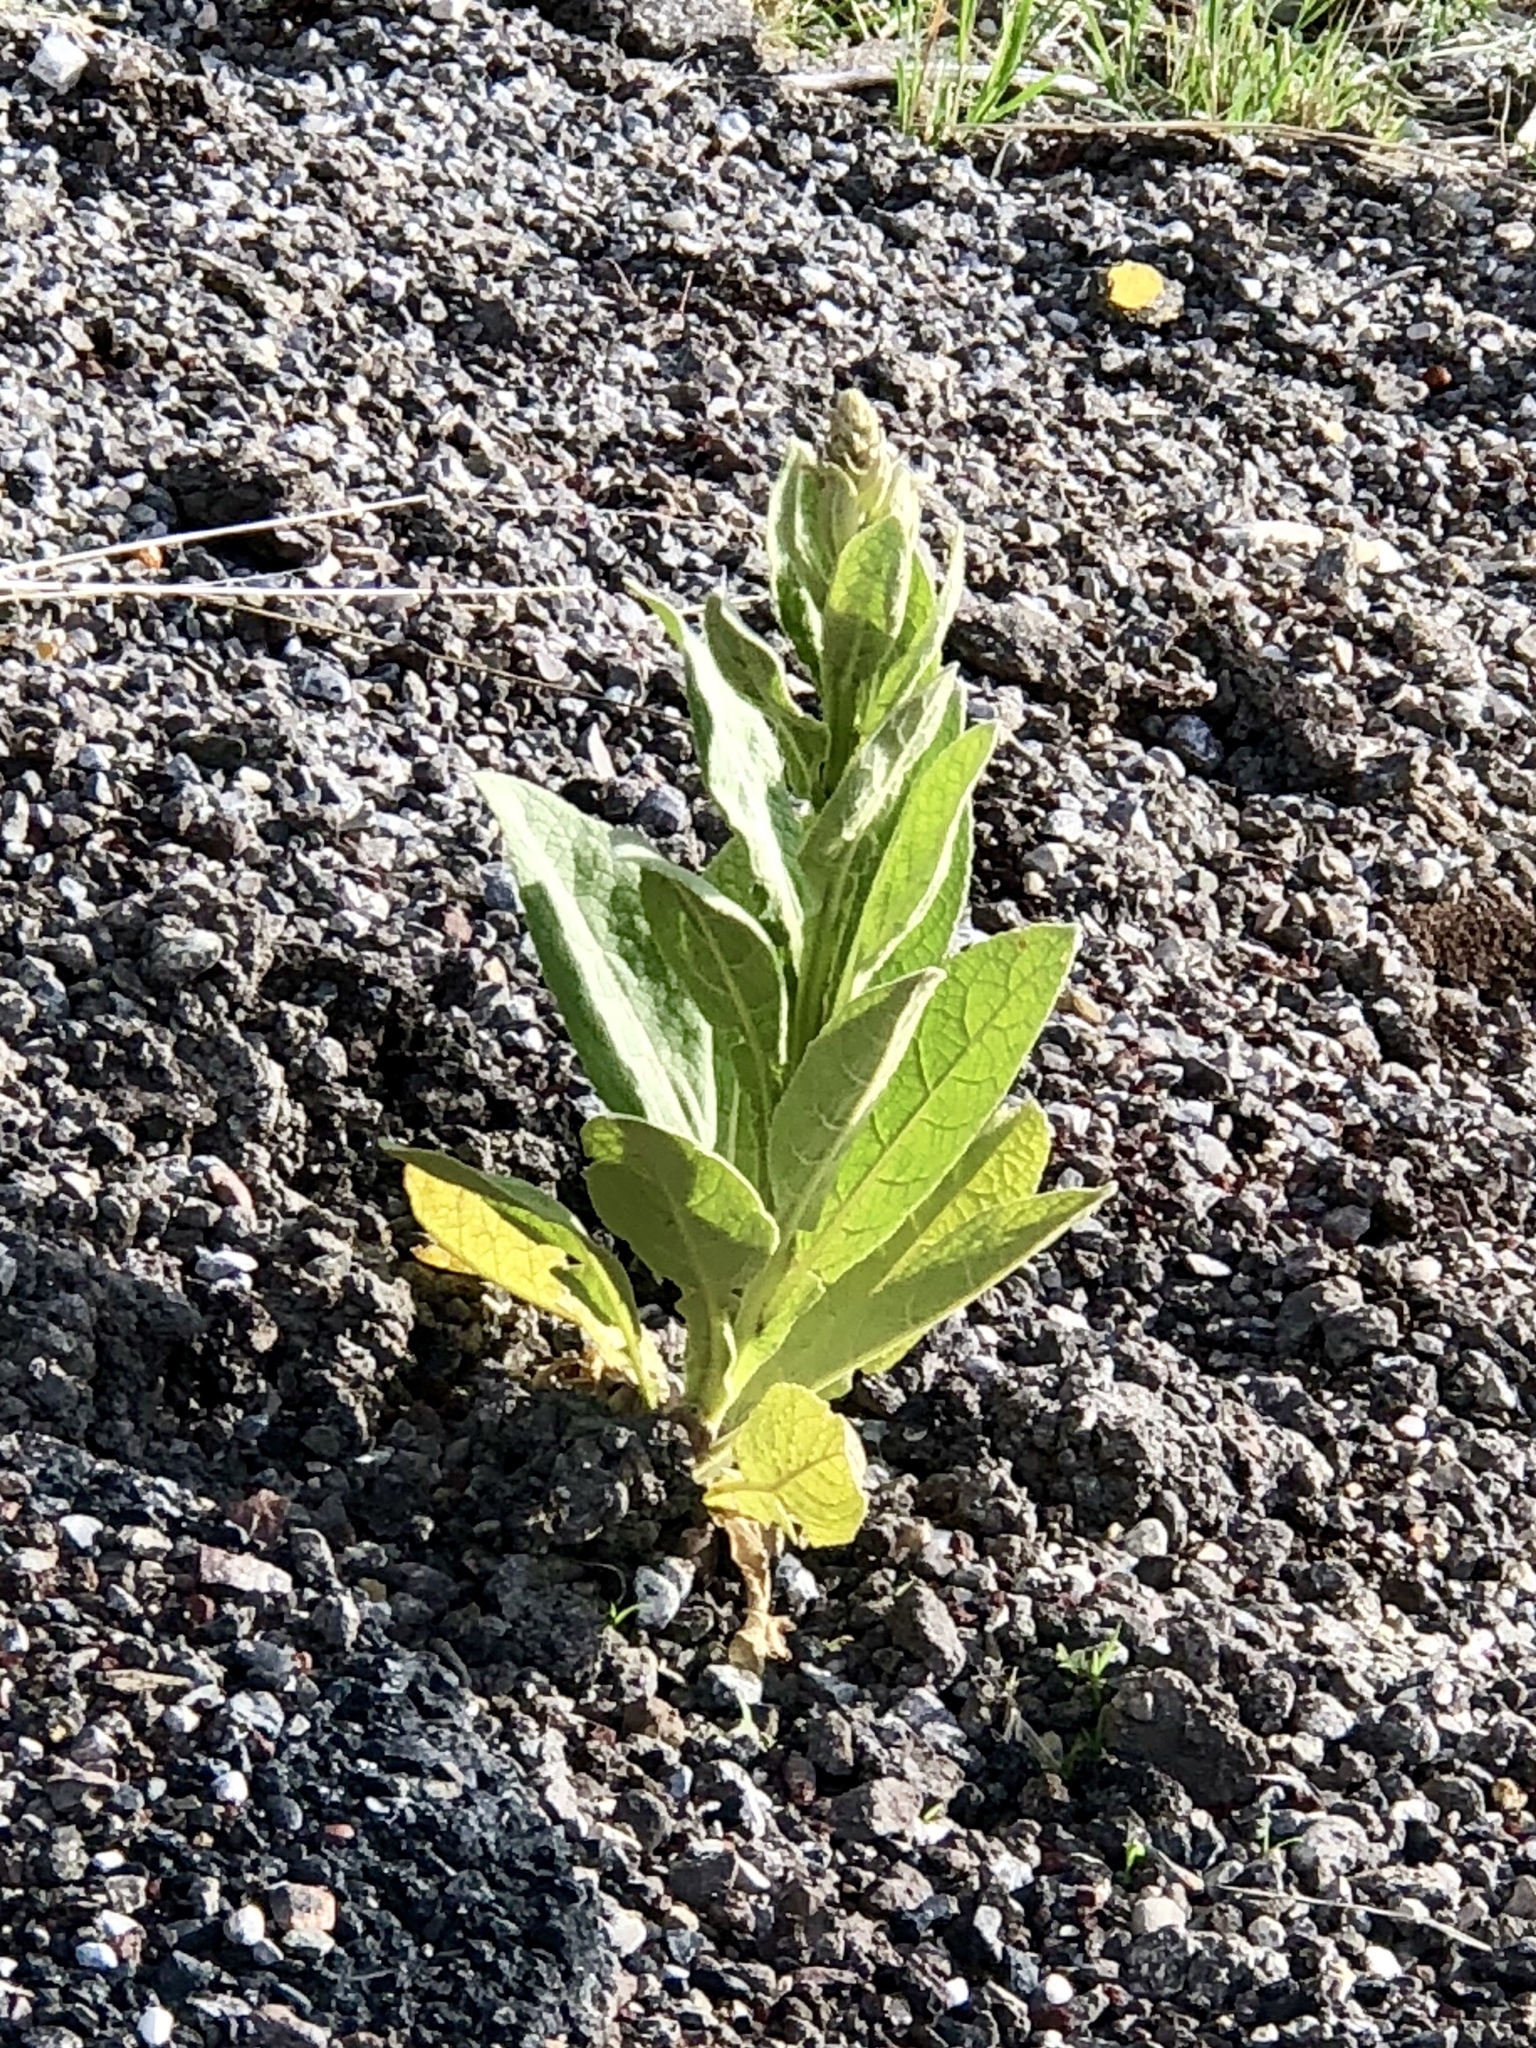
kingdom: Plantae
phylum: Tracheophyta
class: Magnoliopsida
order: Lamiales
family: Scrophulariaceae
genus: Verbascum
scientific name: Verbascum thapsus
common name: Common mullein
